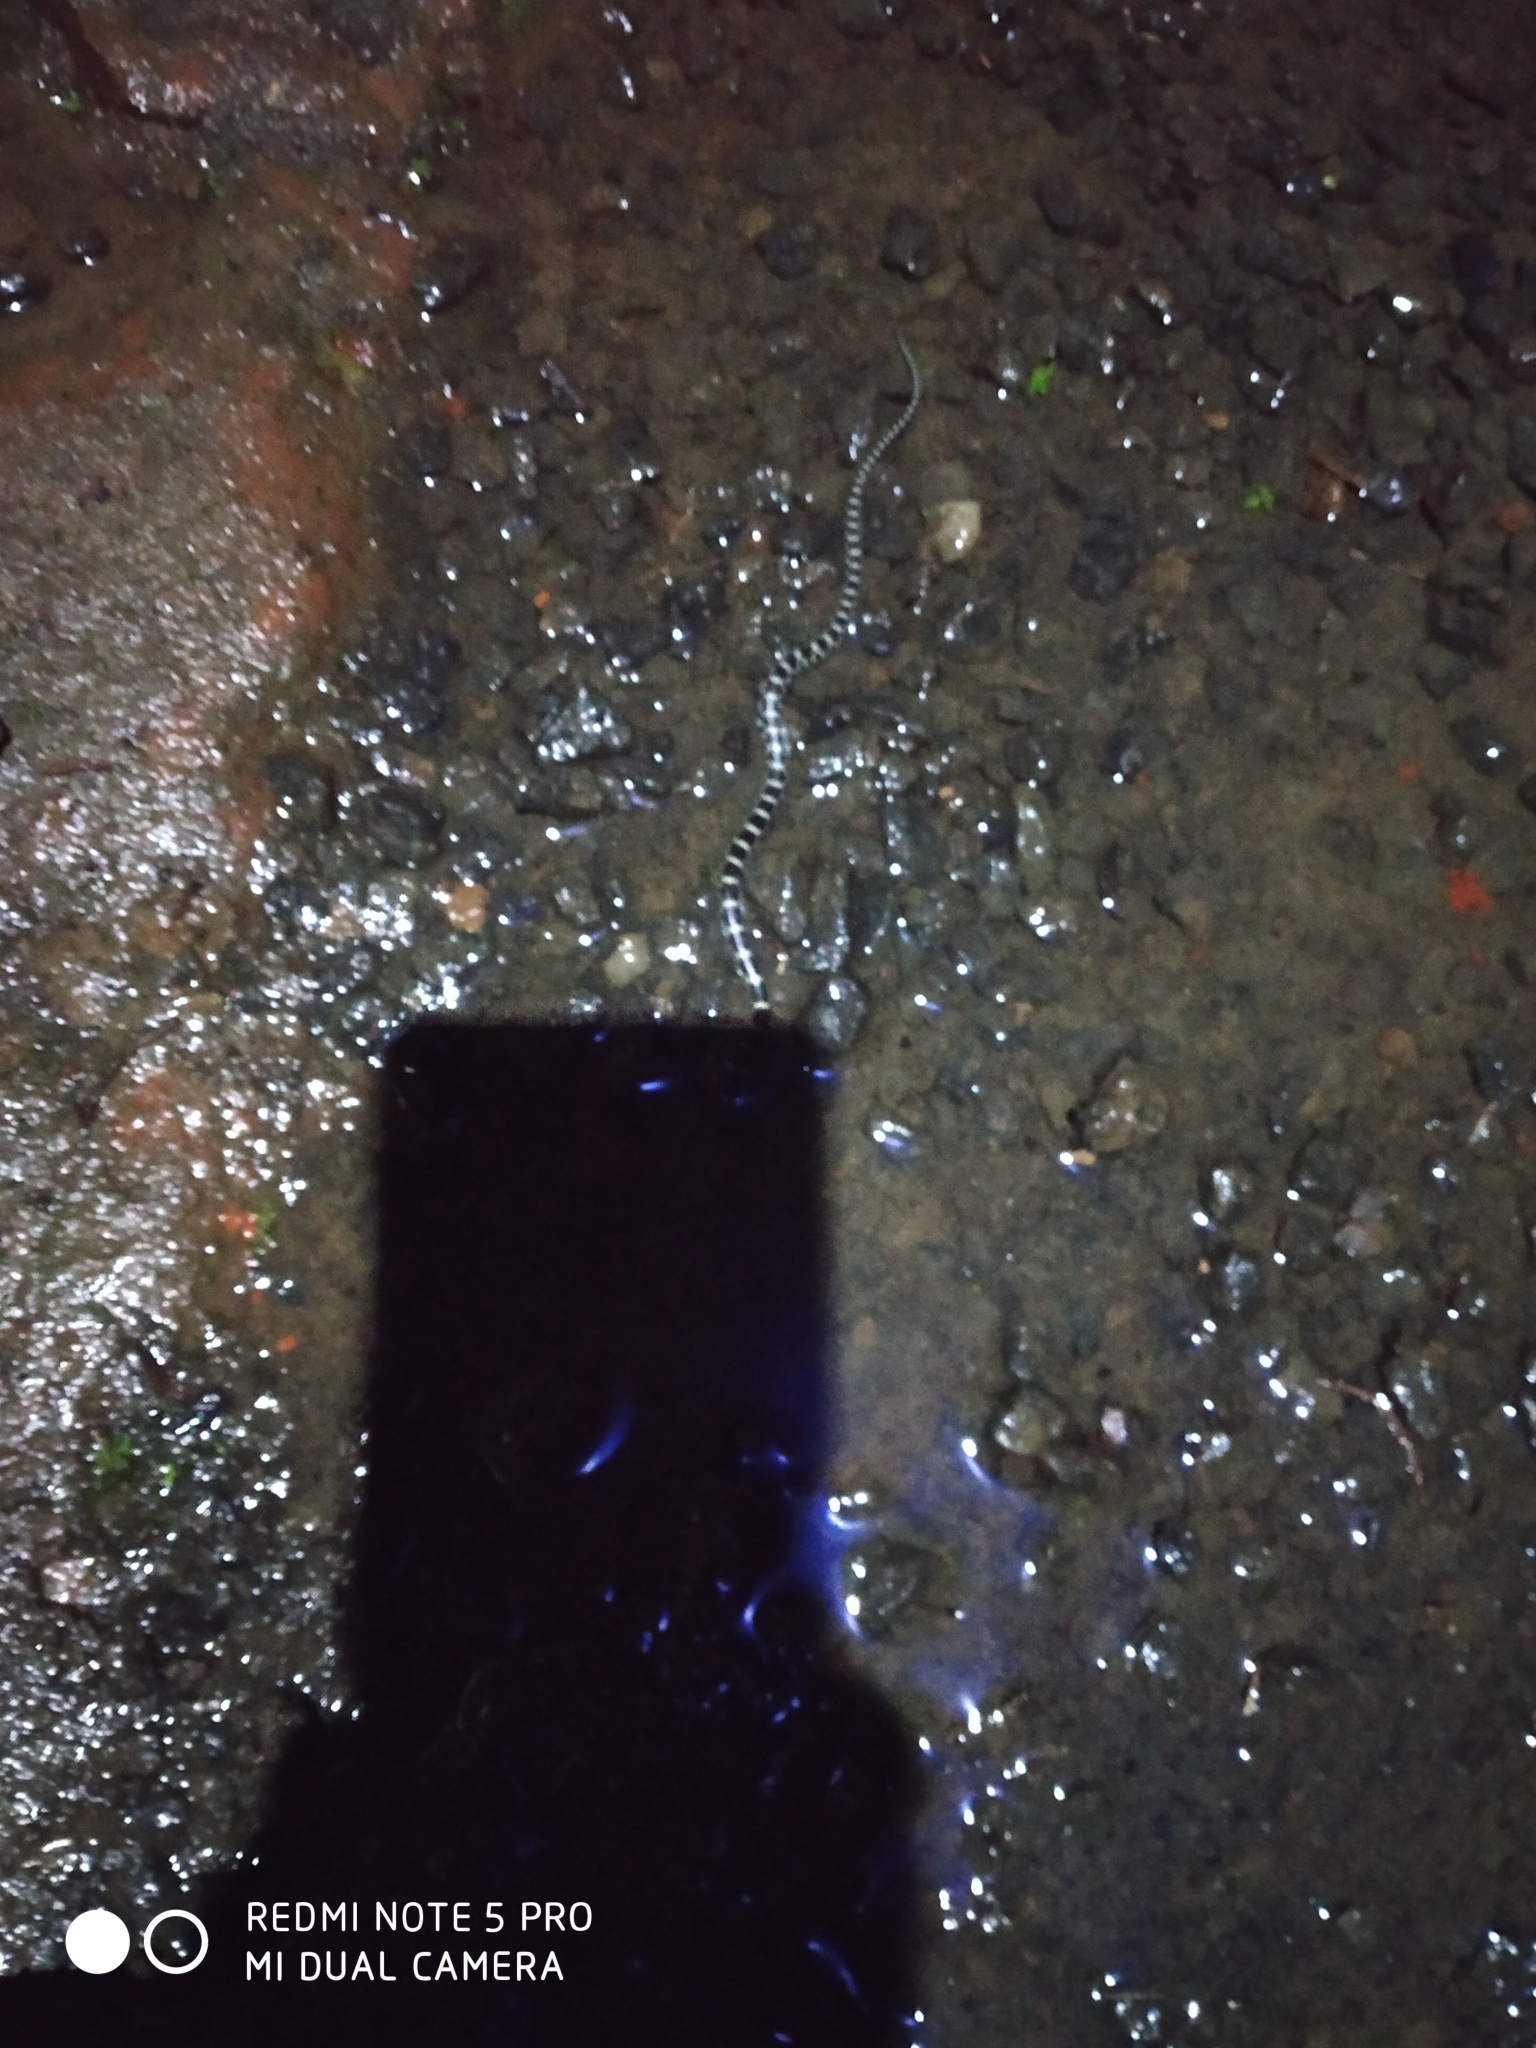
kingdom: Animalia
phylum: Chordata
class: Squamata
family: Colubridae
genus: Lycodon
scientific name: Lycodon travancoricus
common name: Travancore wolf snake
